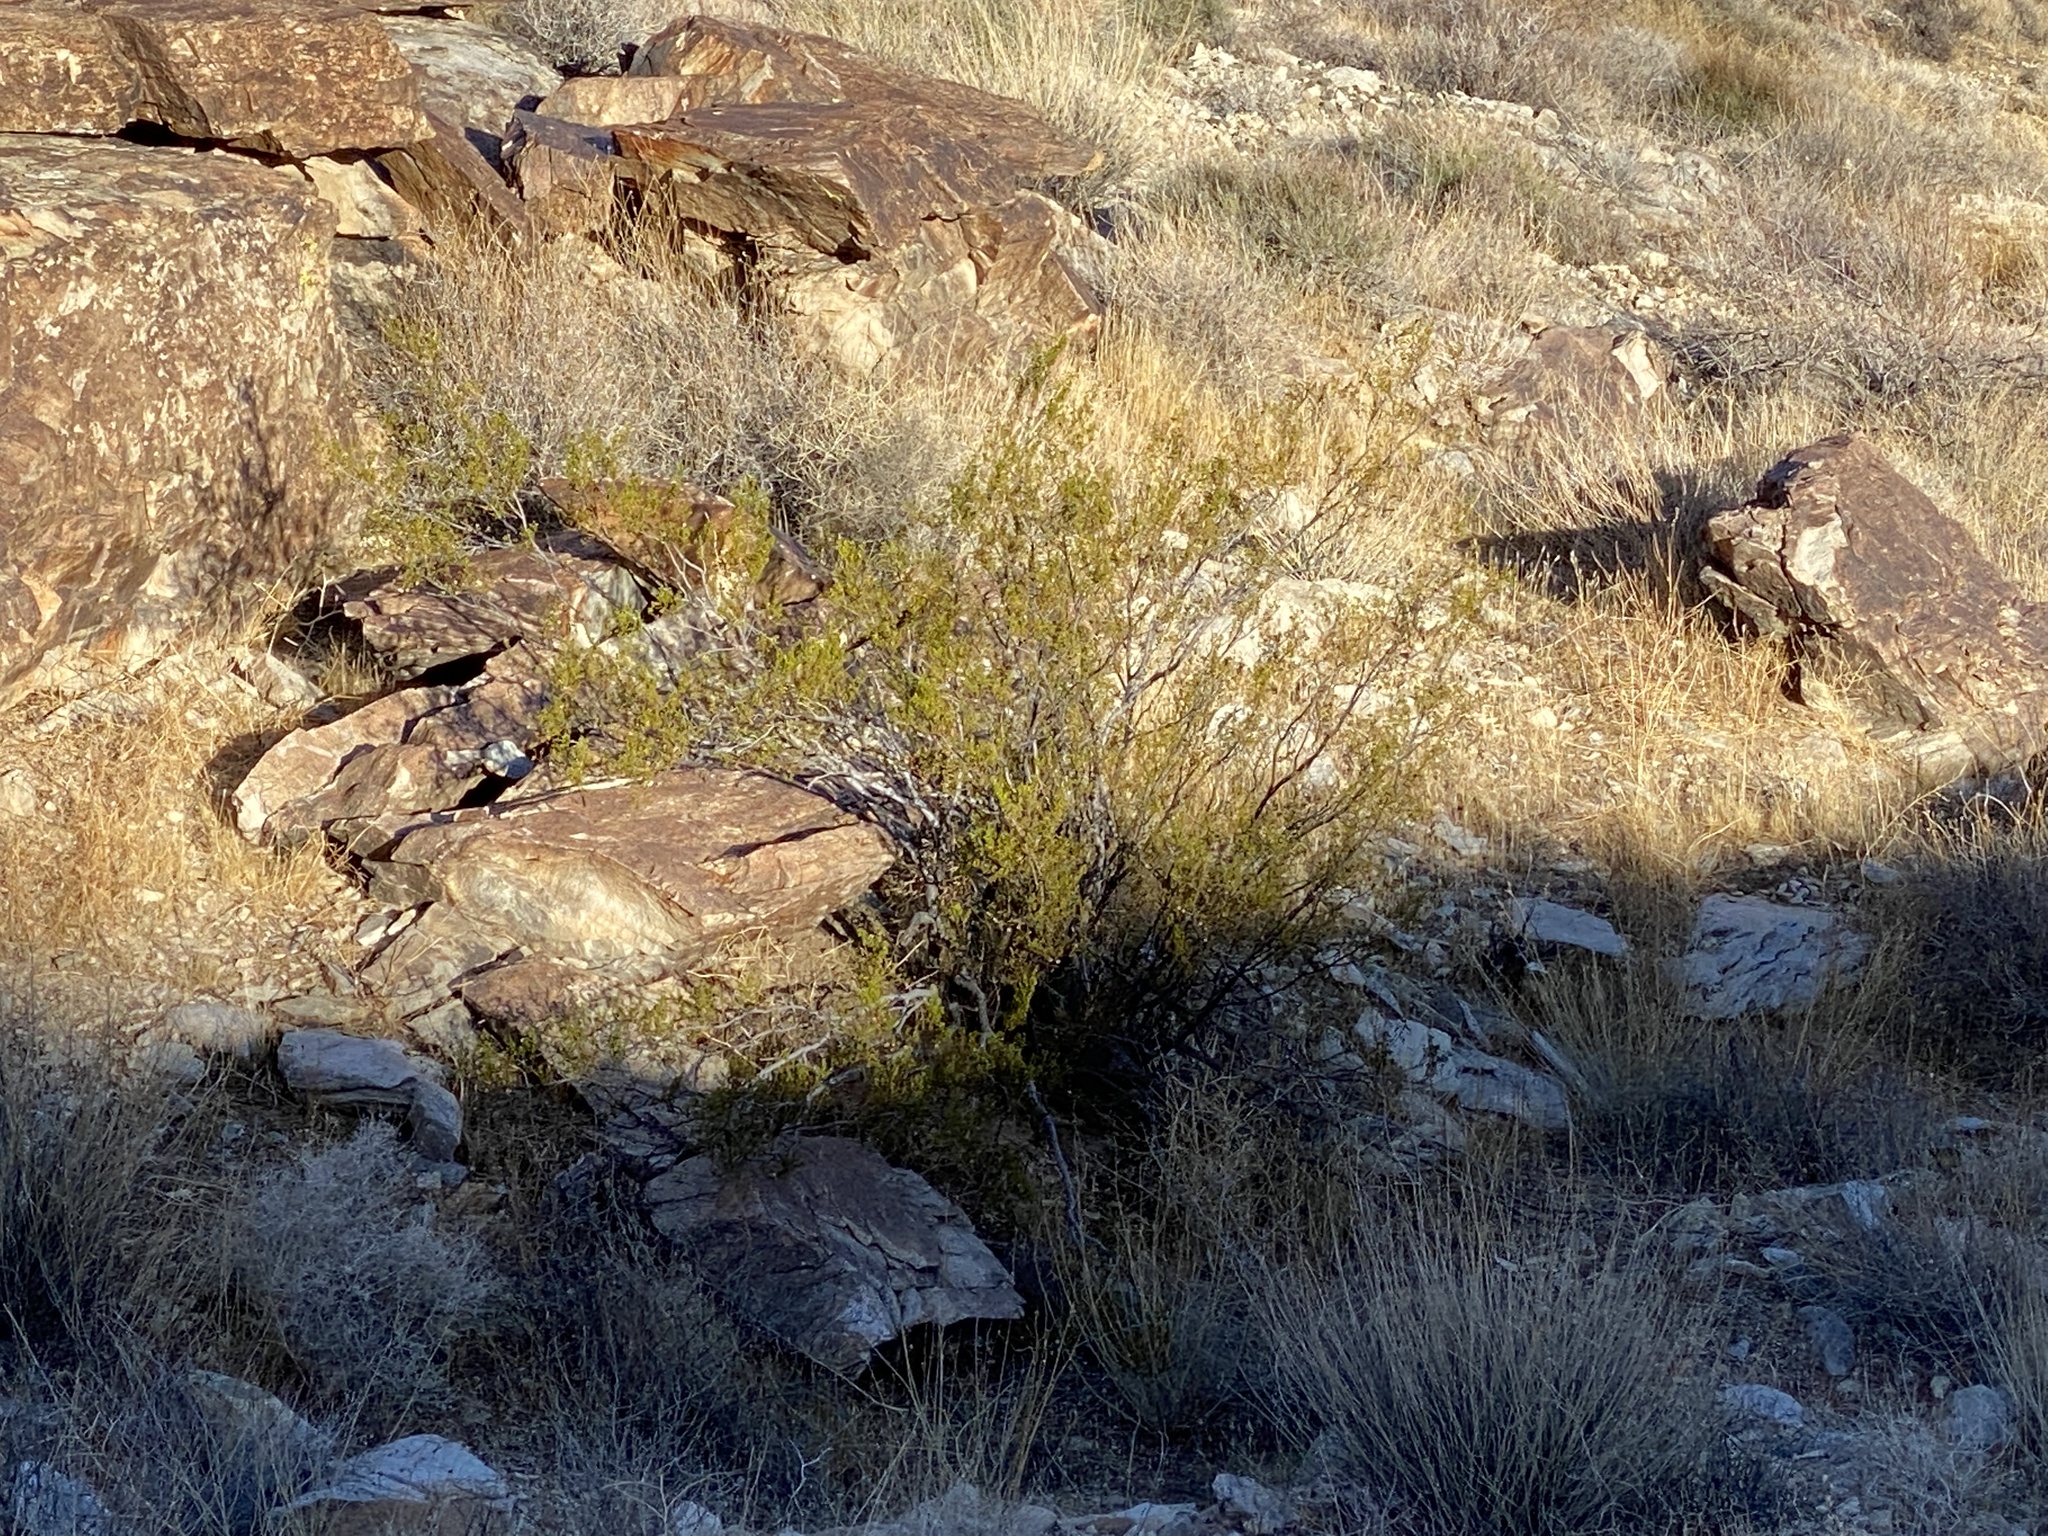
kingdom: Plantae
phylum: Tracheophyta
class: Magnoliopsida
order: Zygophyllales
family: Zygophyllaceae
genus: Larrea
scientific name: Larrea tridentata
